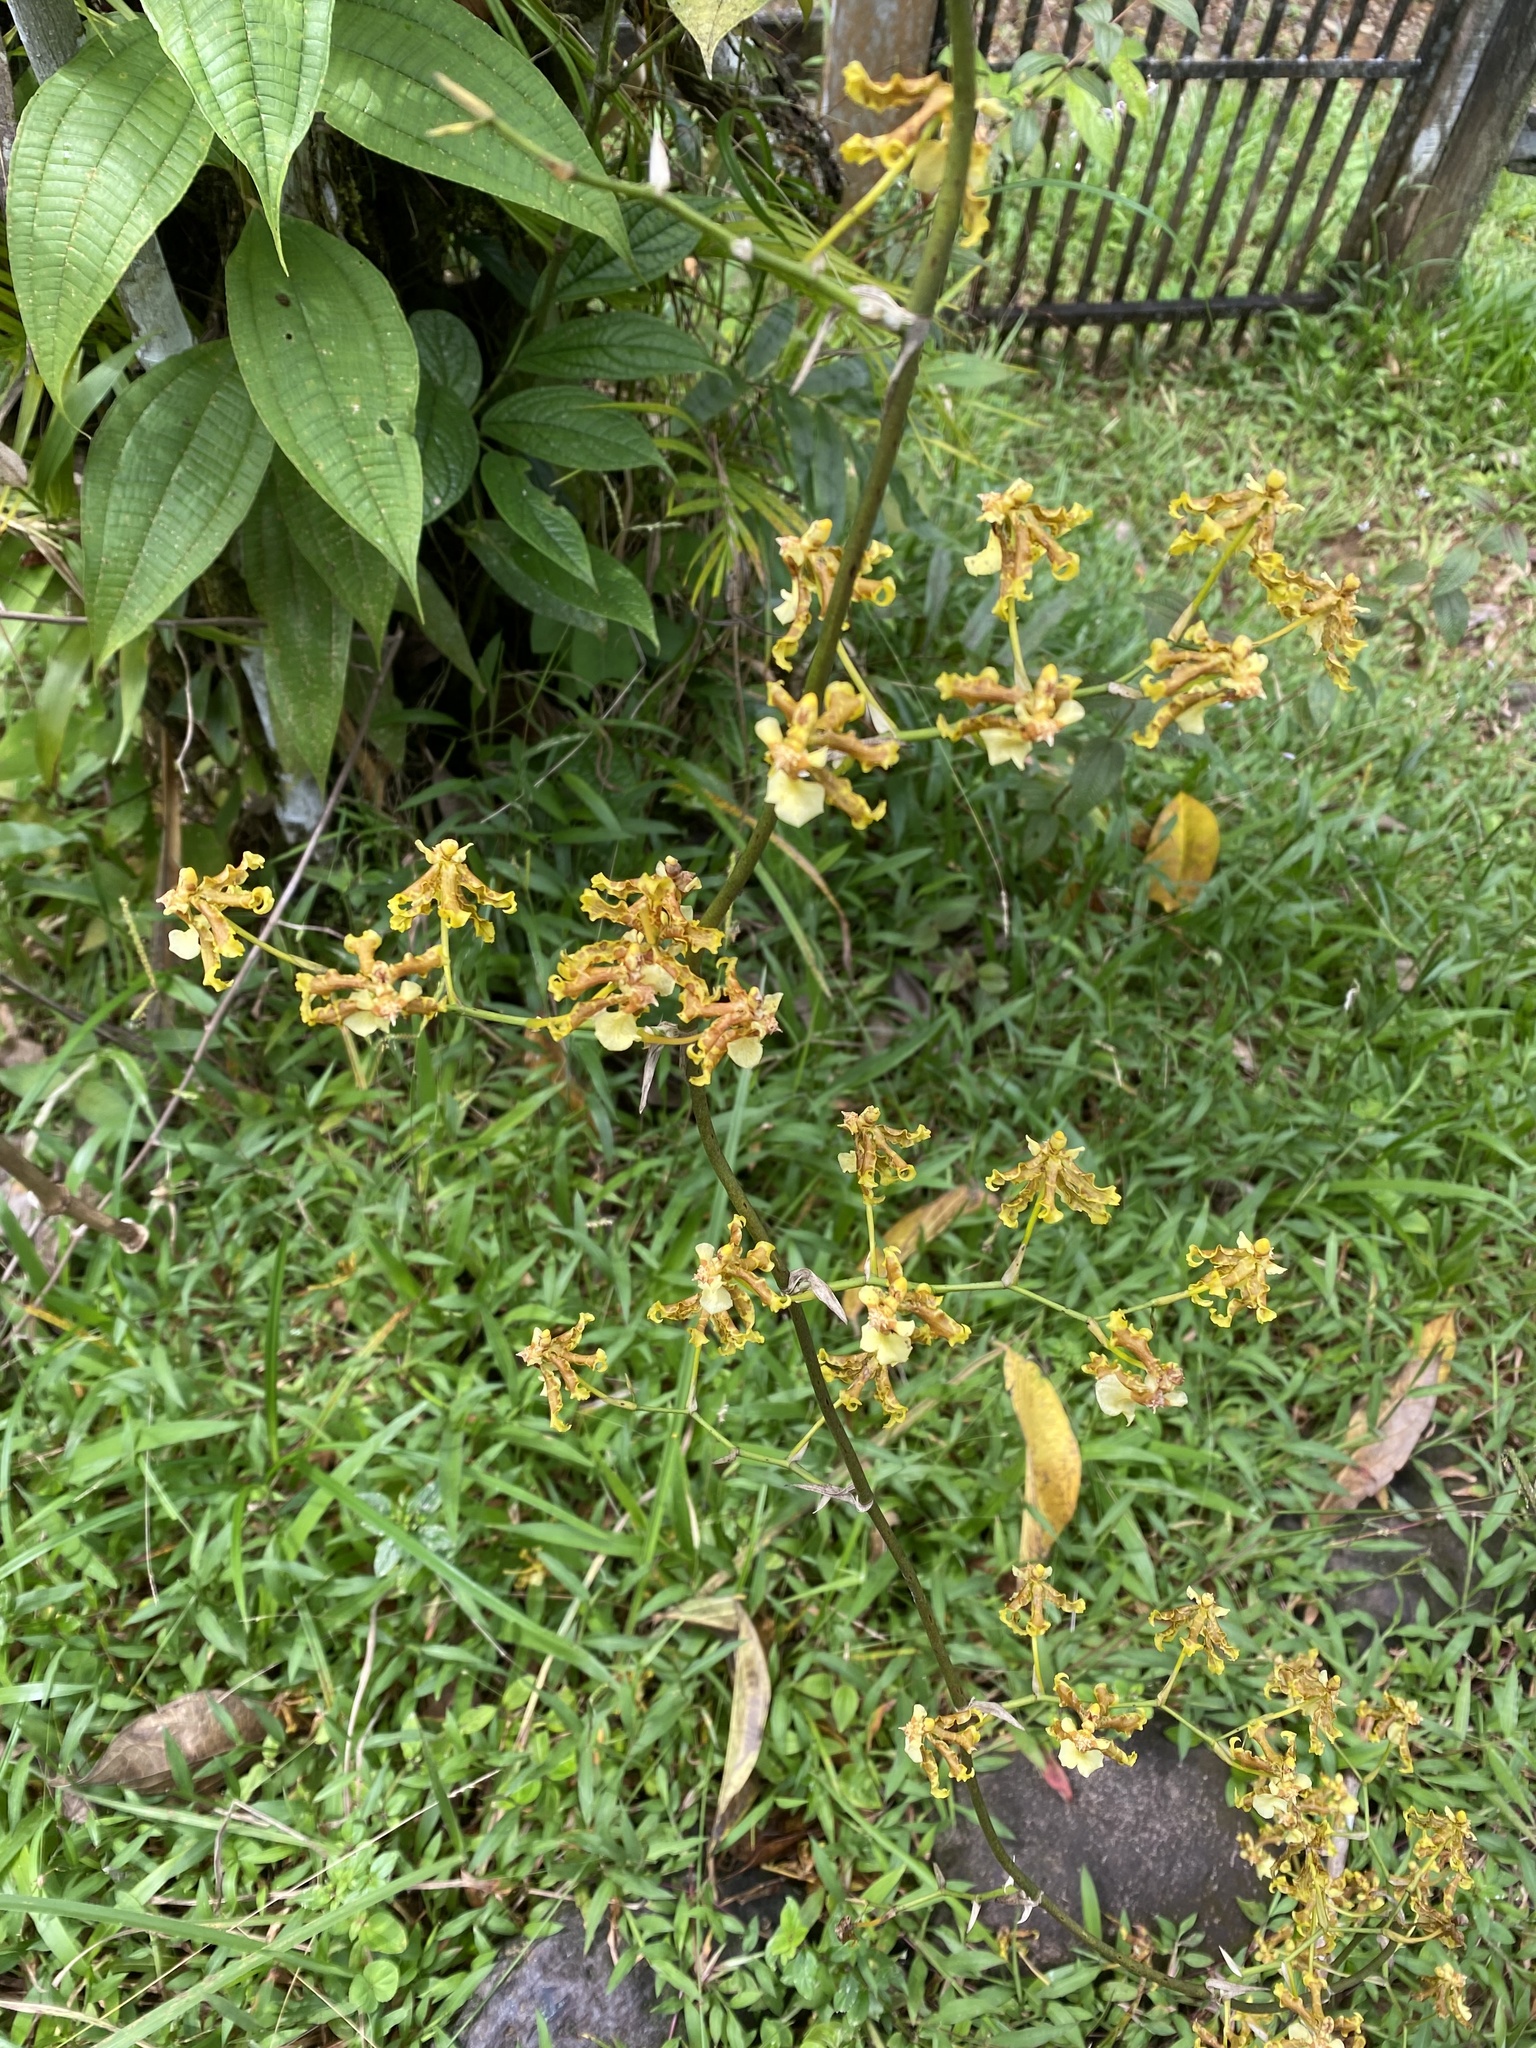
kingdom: Plantae
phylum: Tracheophyta
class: Liliopsida
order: Asparagales
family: Orchidaceae
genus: Oncidium
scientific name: Oncidium lineoligerum
